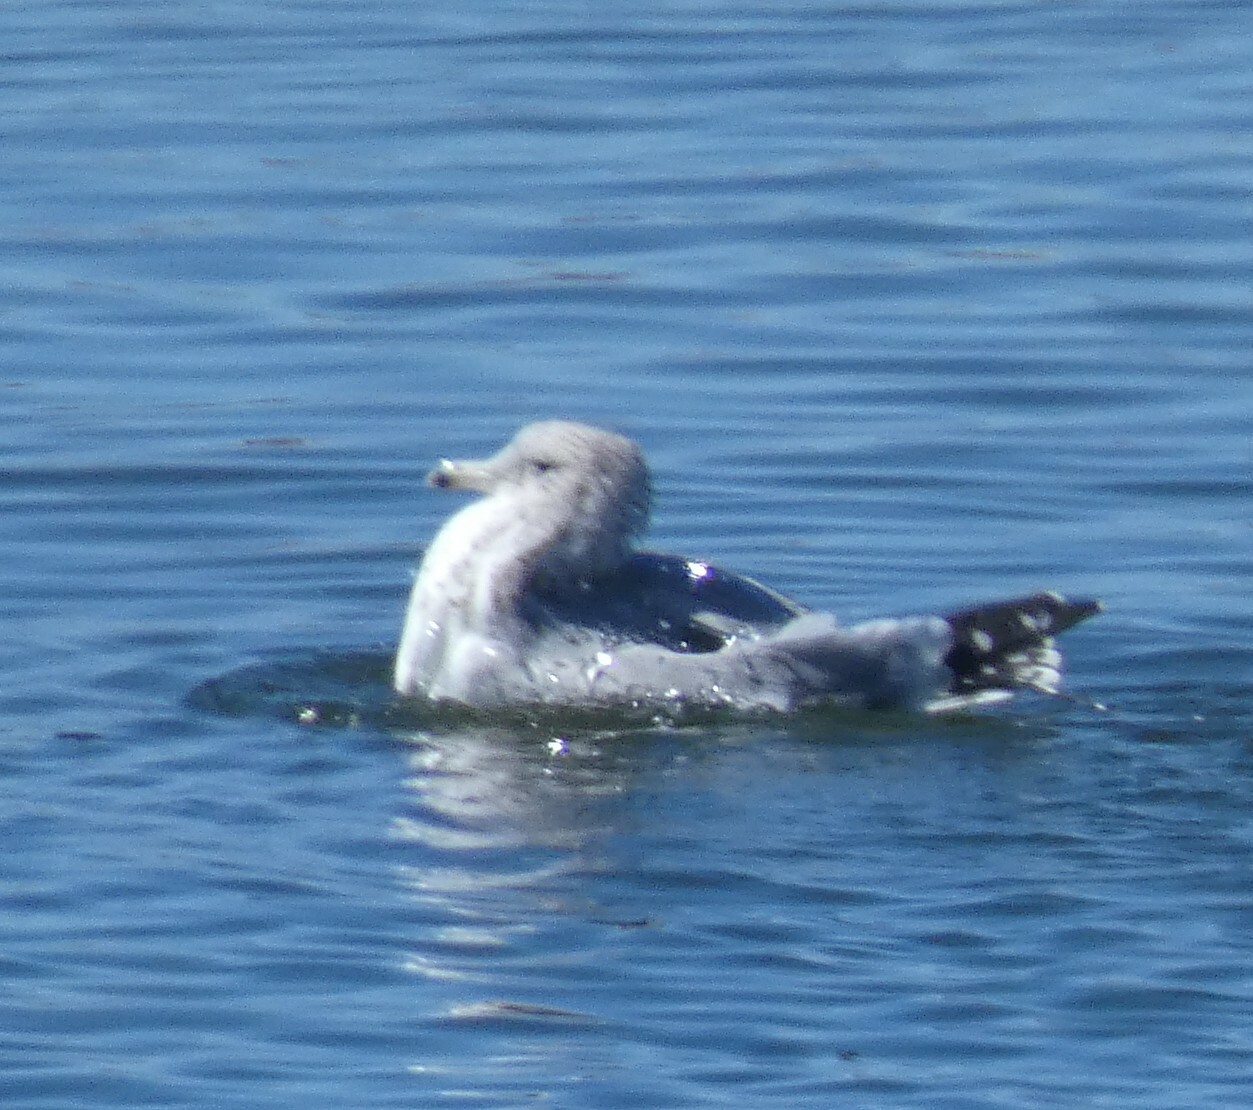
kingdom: Animalia
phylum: Chordata
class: Aves
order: Charadriiformes
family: Laridae
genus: Larus
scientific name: Larus californicus
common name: California gull
